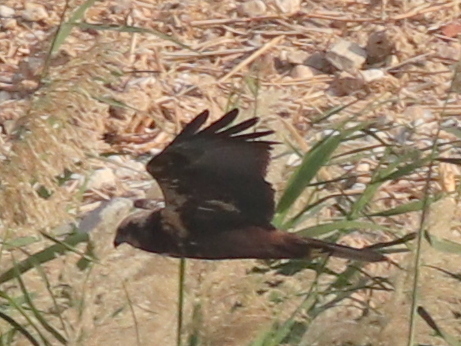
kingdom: Animalia
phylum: Chordata
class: Aves
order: Accipitriformes
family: Accipitridae
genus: Circus
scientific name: Circus aeruginosus
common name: Western marsh harrier
